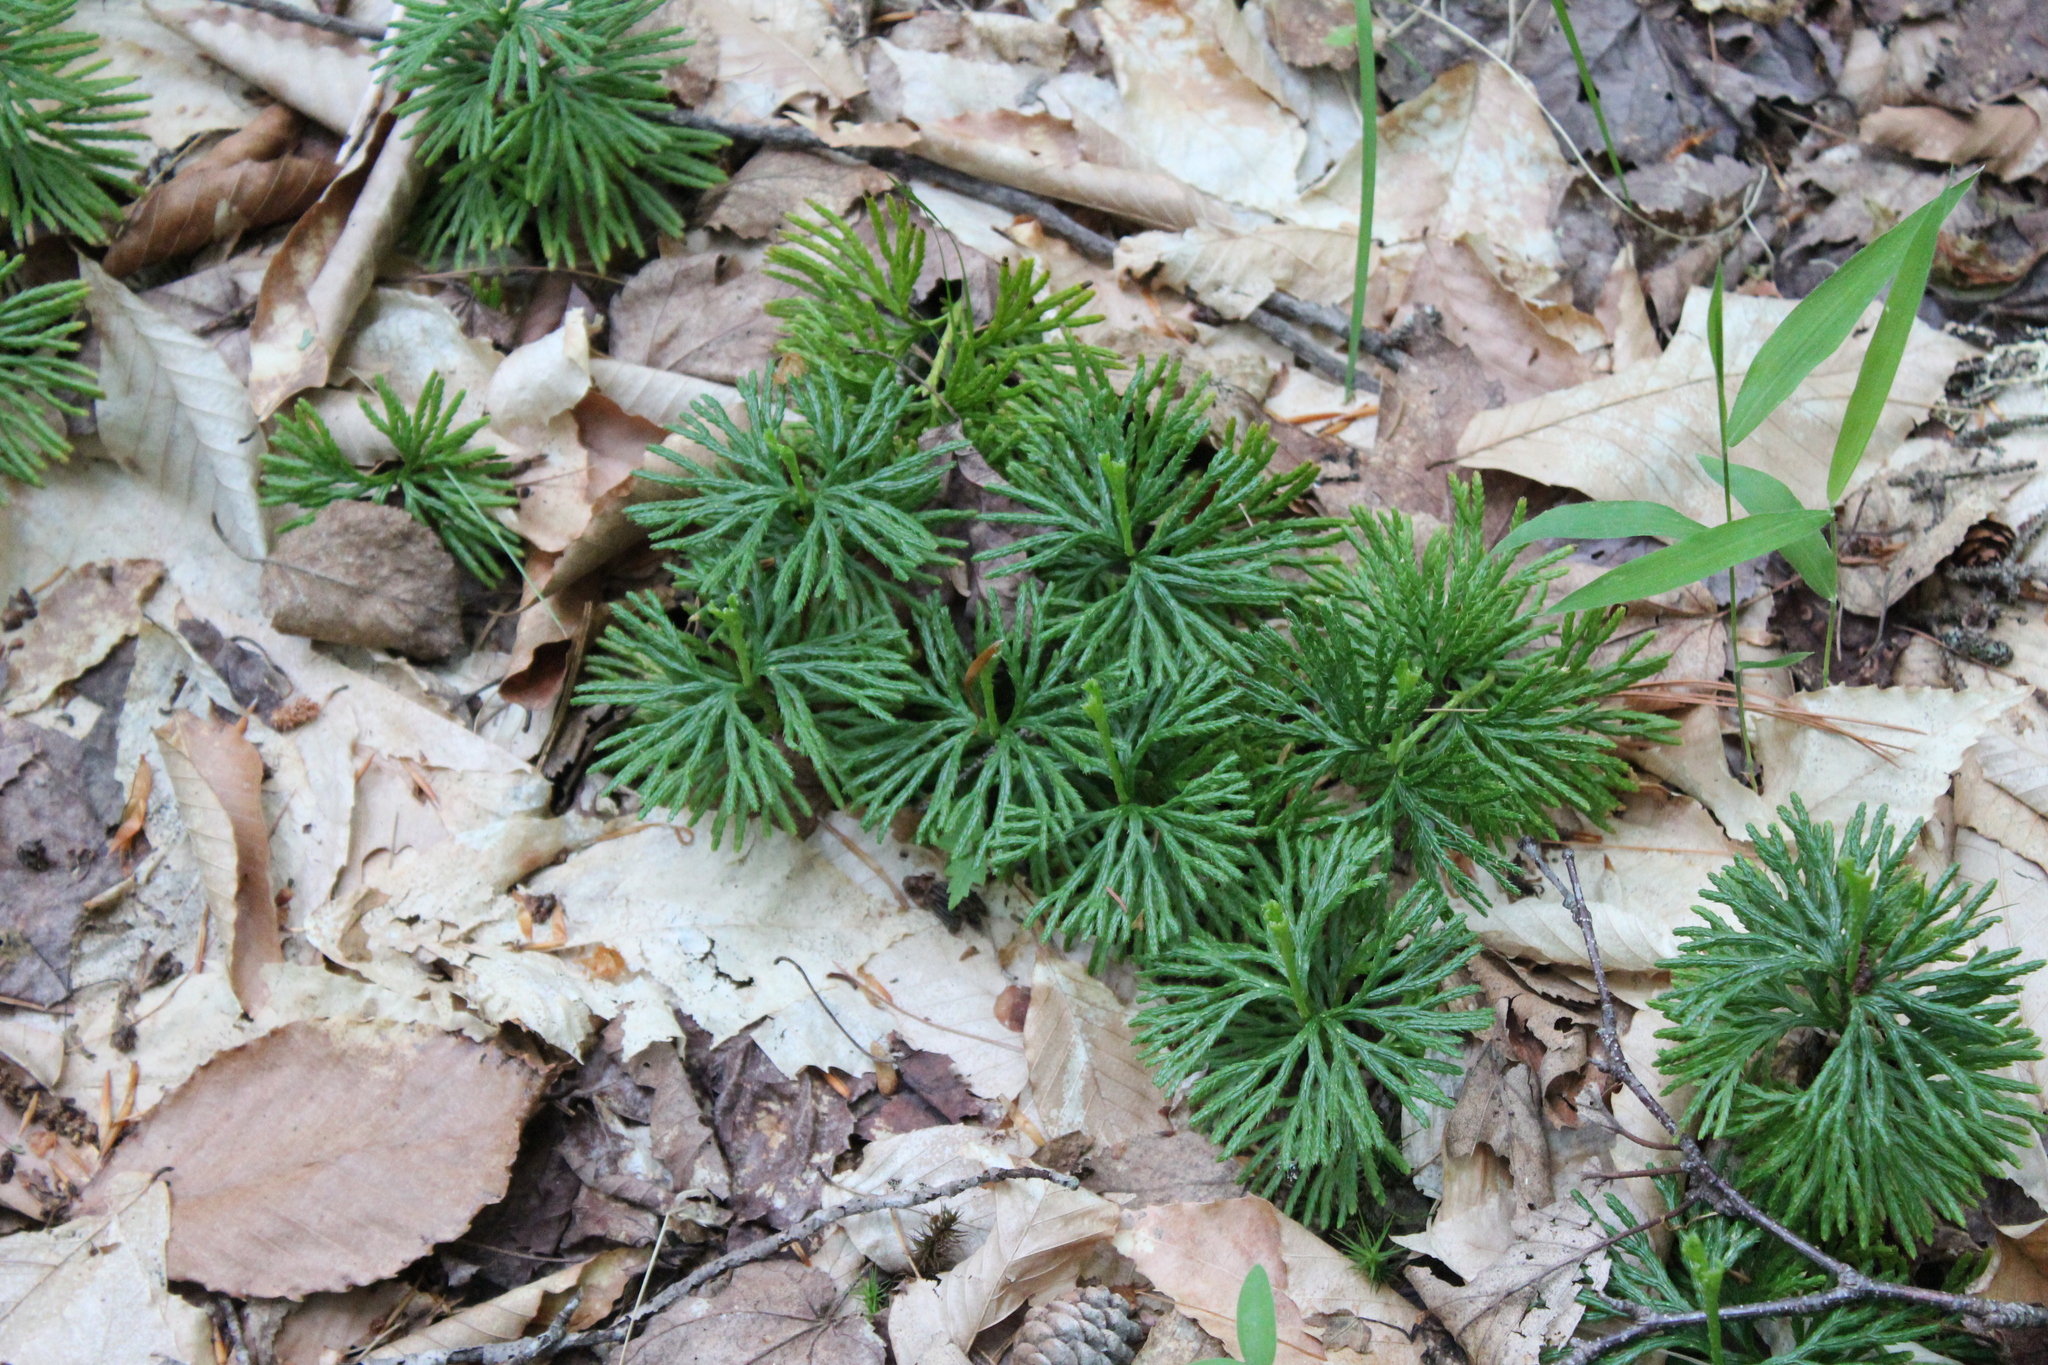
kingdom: Plantae
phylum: Tracheophyta
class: Lycopodiopsida
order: Lycopodiales
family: Lycopodiaceae
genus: Diphasiastrum
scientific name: Diphasiastrum digitatum
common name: Southern running-pine
